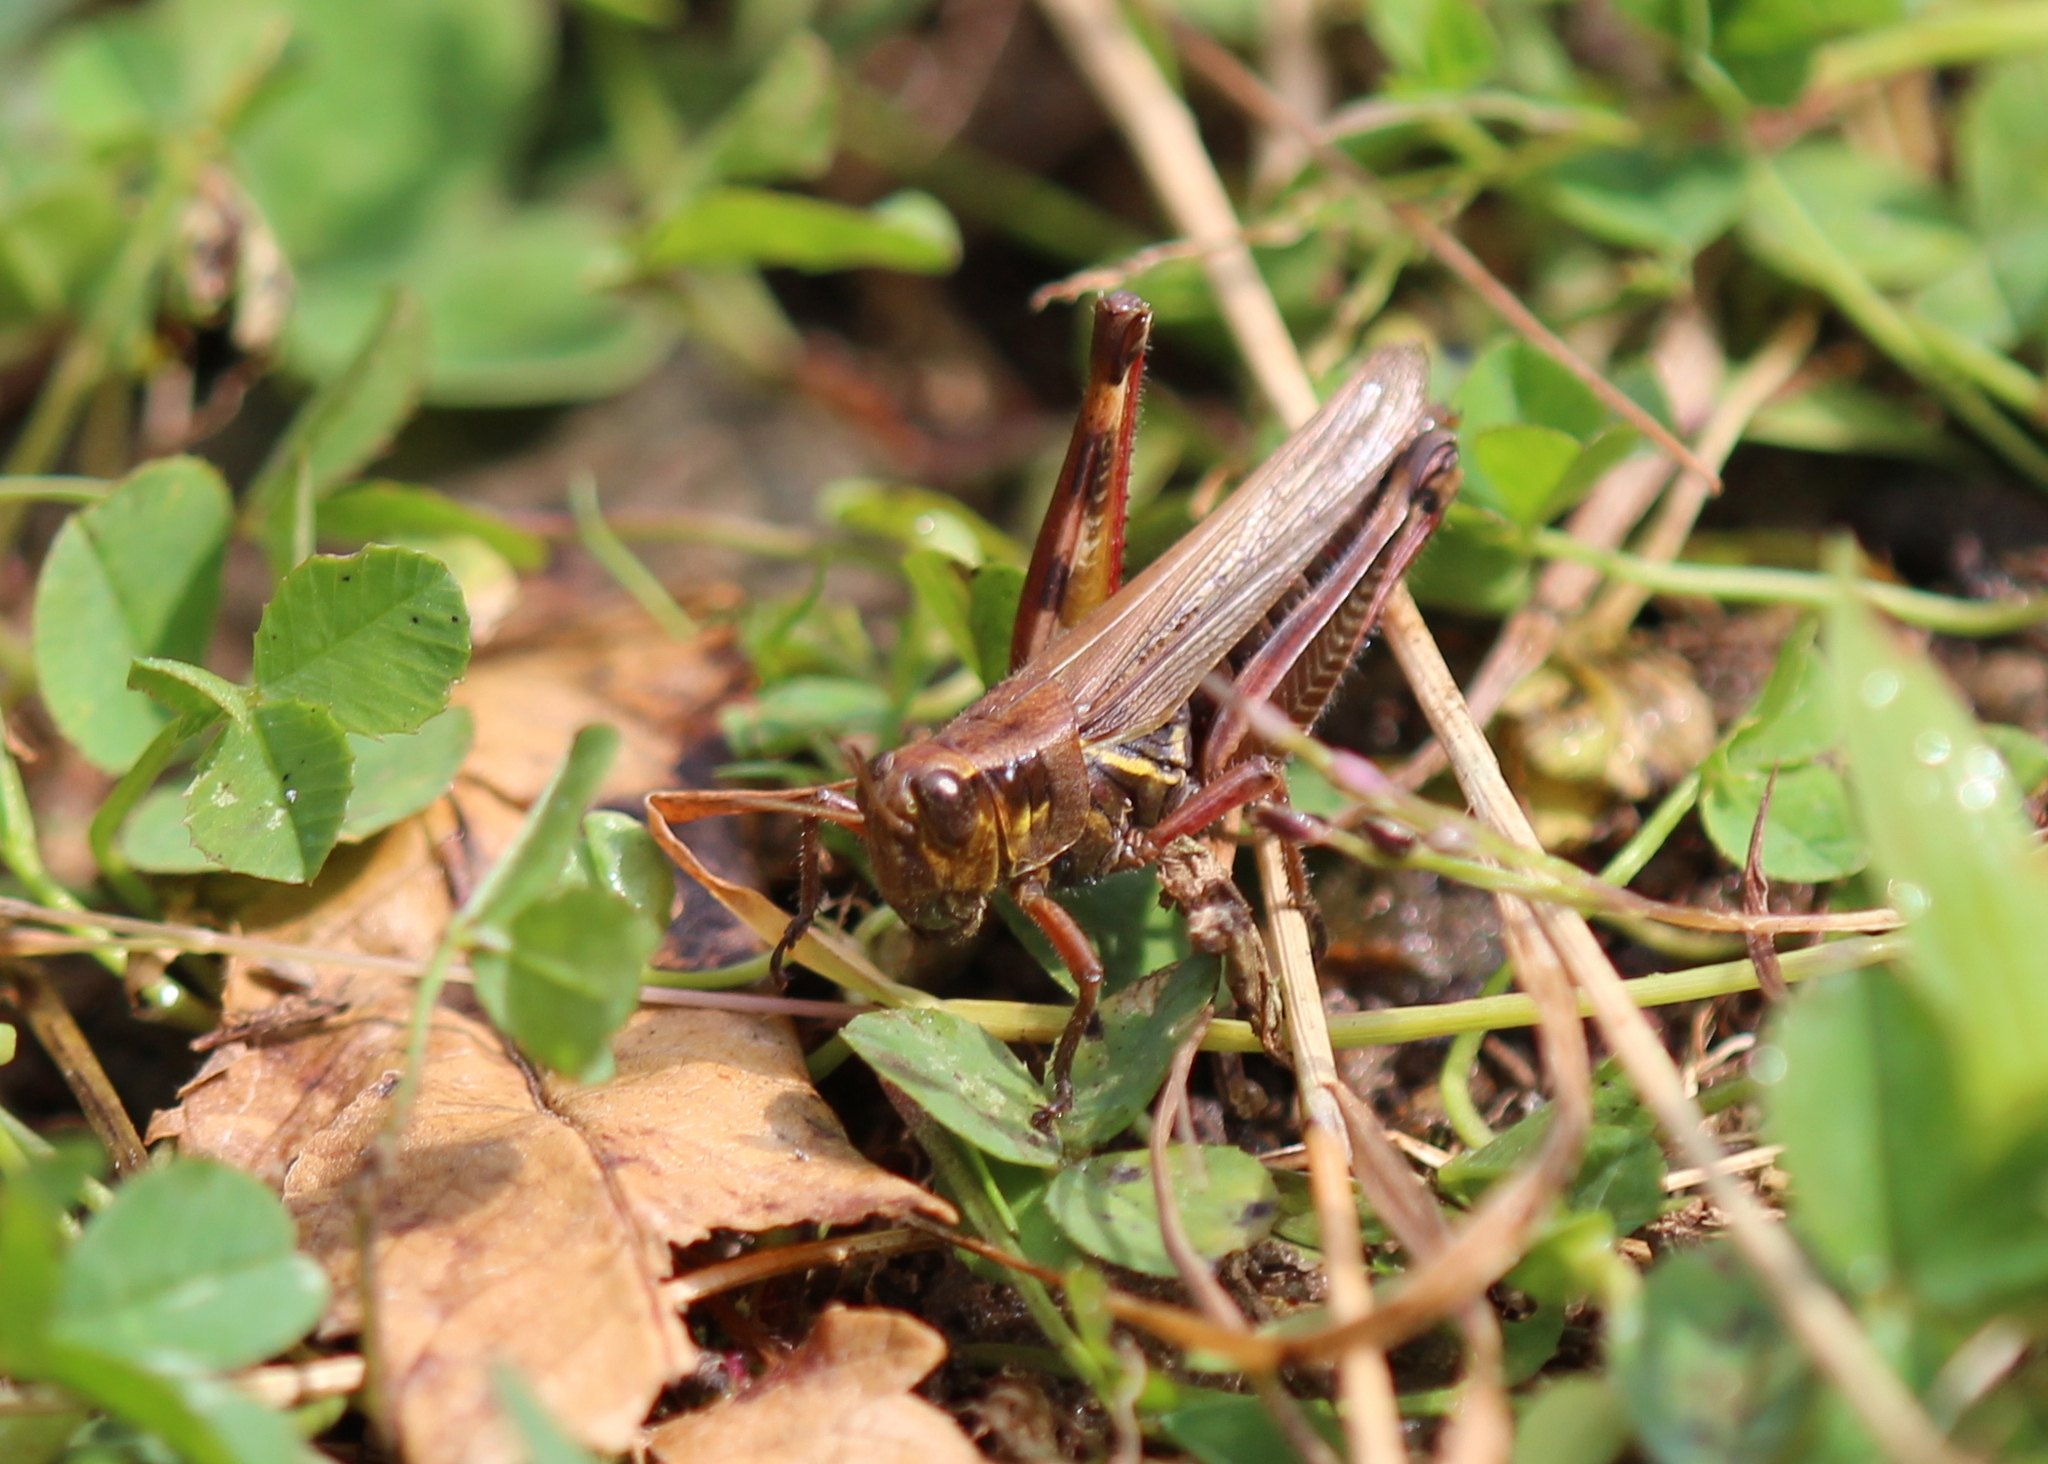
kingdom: Animalia
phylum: Arthropoda
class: Insecta
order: Orthoptera
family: Acrididae
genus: Melanoplus
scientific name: Melanoplus femurrubrum
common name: Red-legged grasshopper
